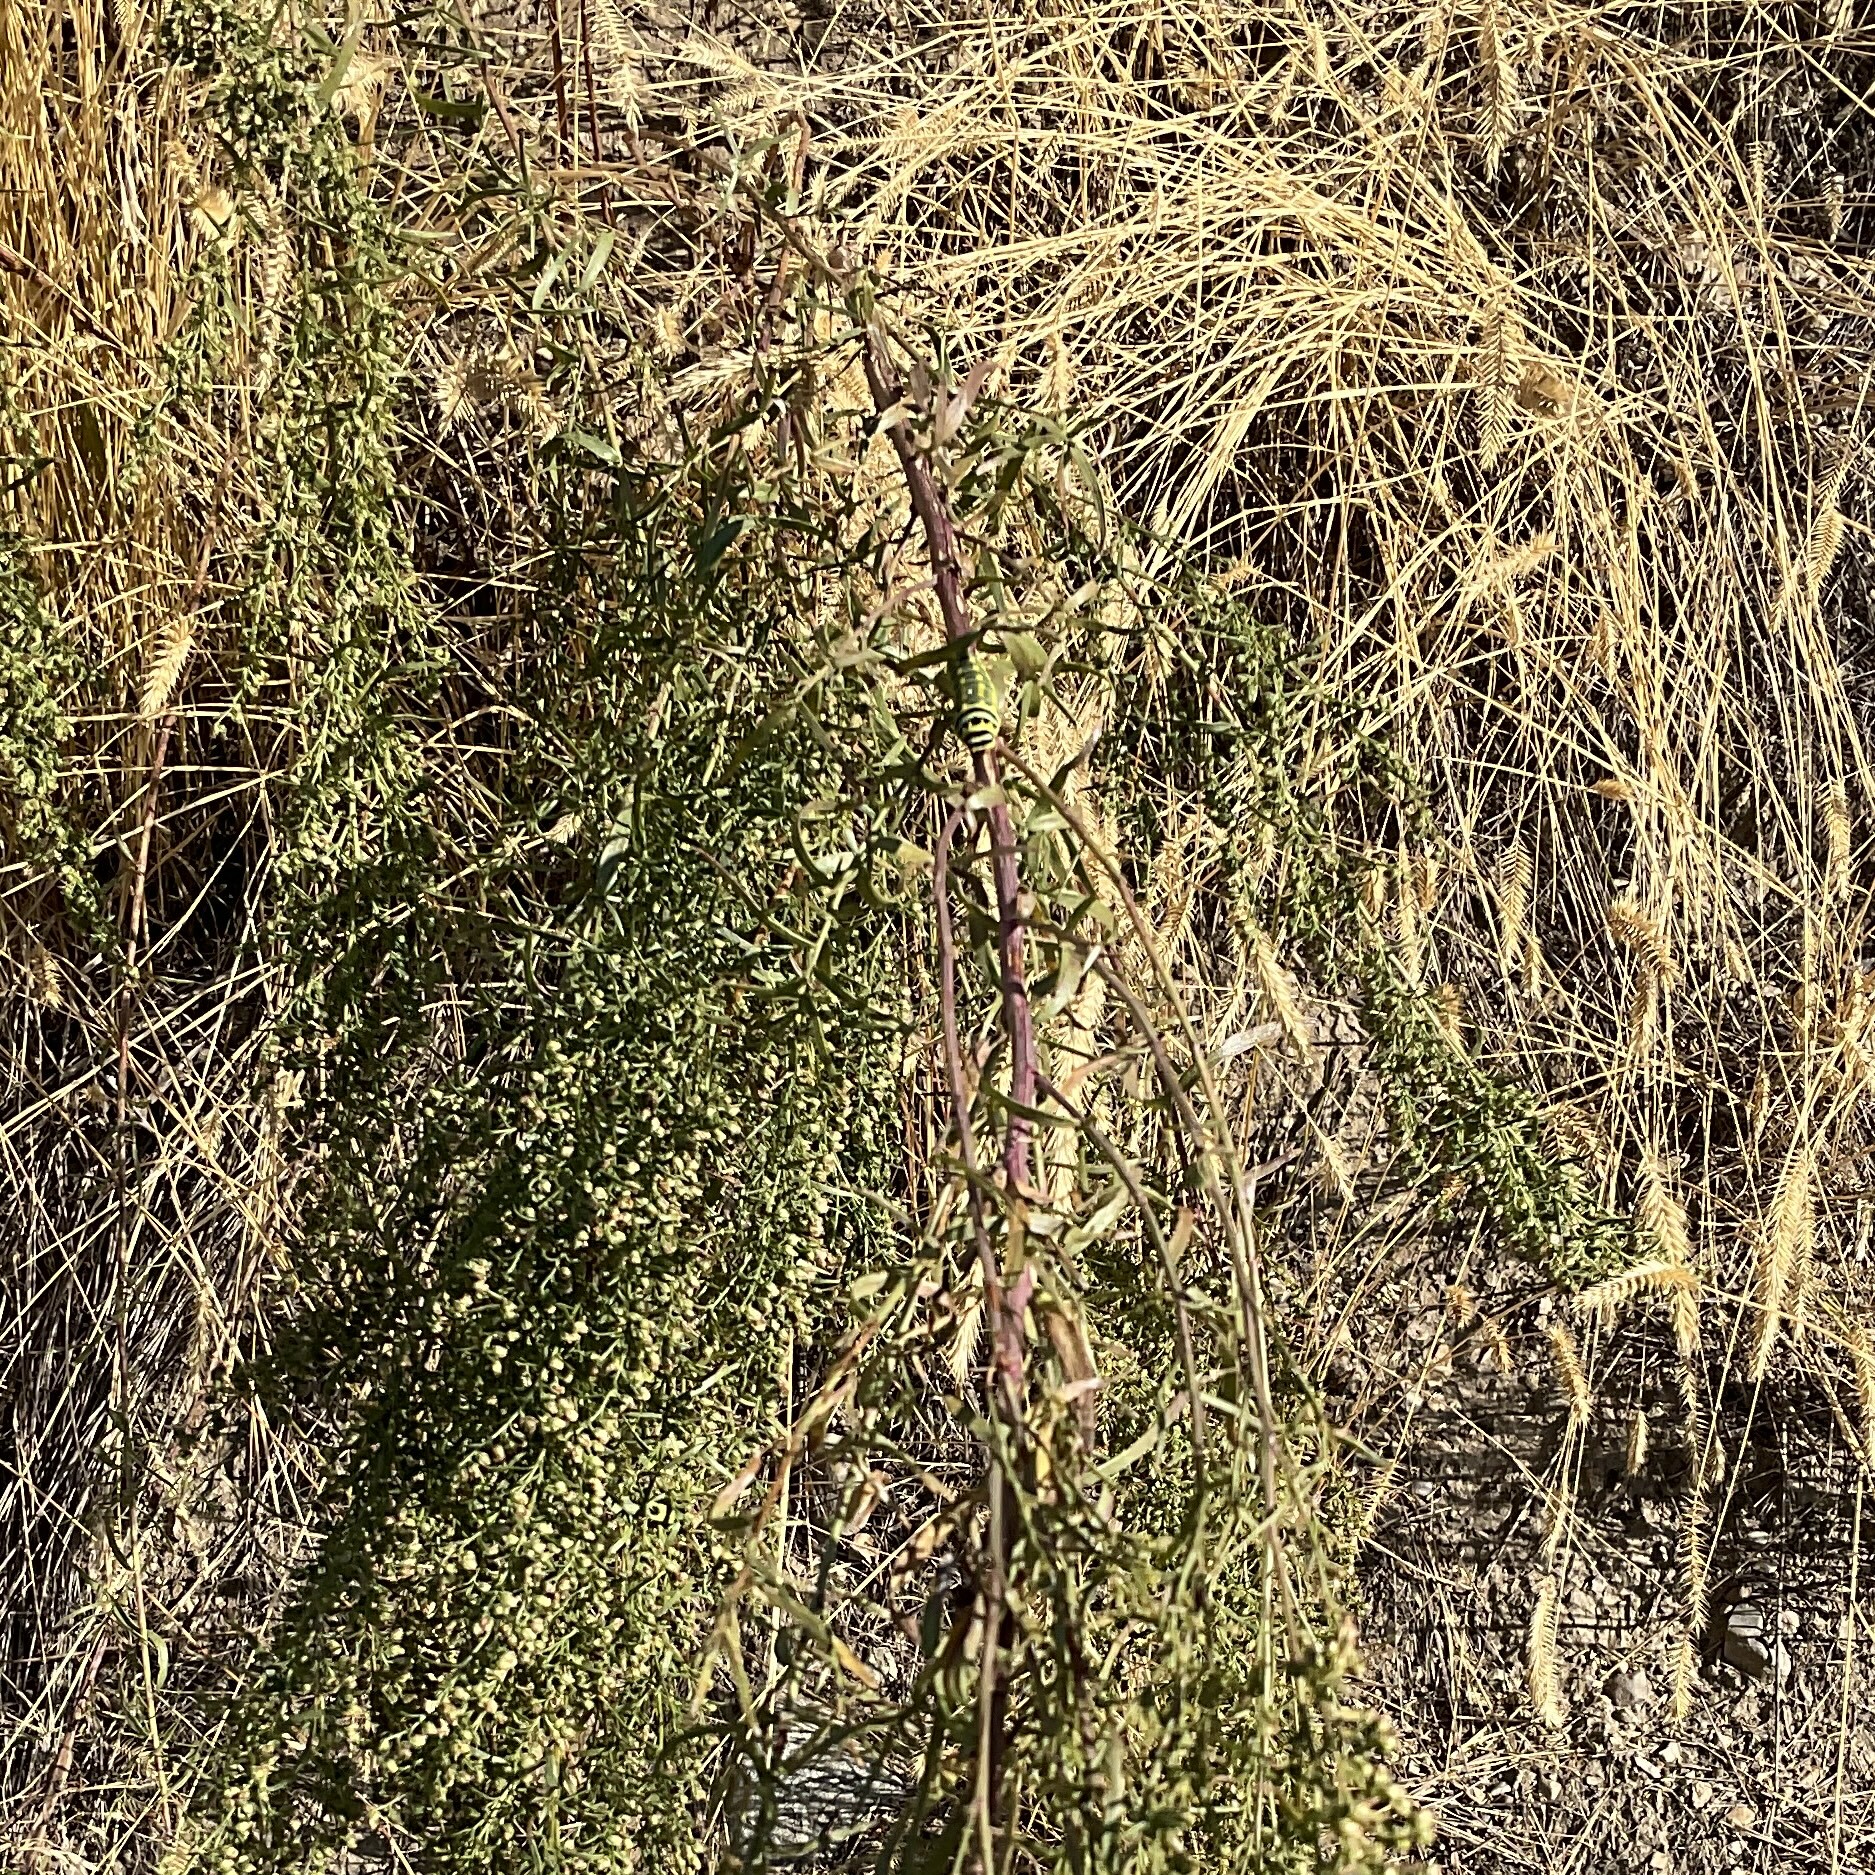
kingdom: Animalia
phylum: Arthropoda
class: Insecta
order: Lepidoptera
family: Papilionidae
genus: Papilio
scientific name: Papilio
